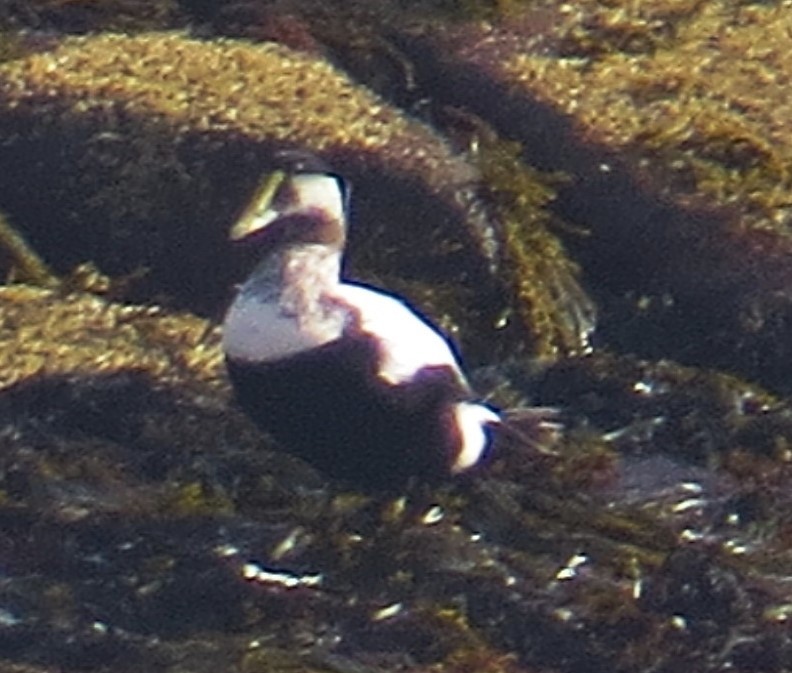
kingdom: Animalia
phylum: Chordata
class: Aves
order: Anseriformes
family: Anatidae
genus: Somateria
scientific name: Somateria mollissima
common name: Common eider
